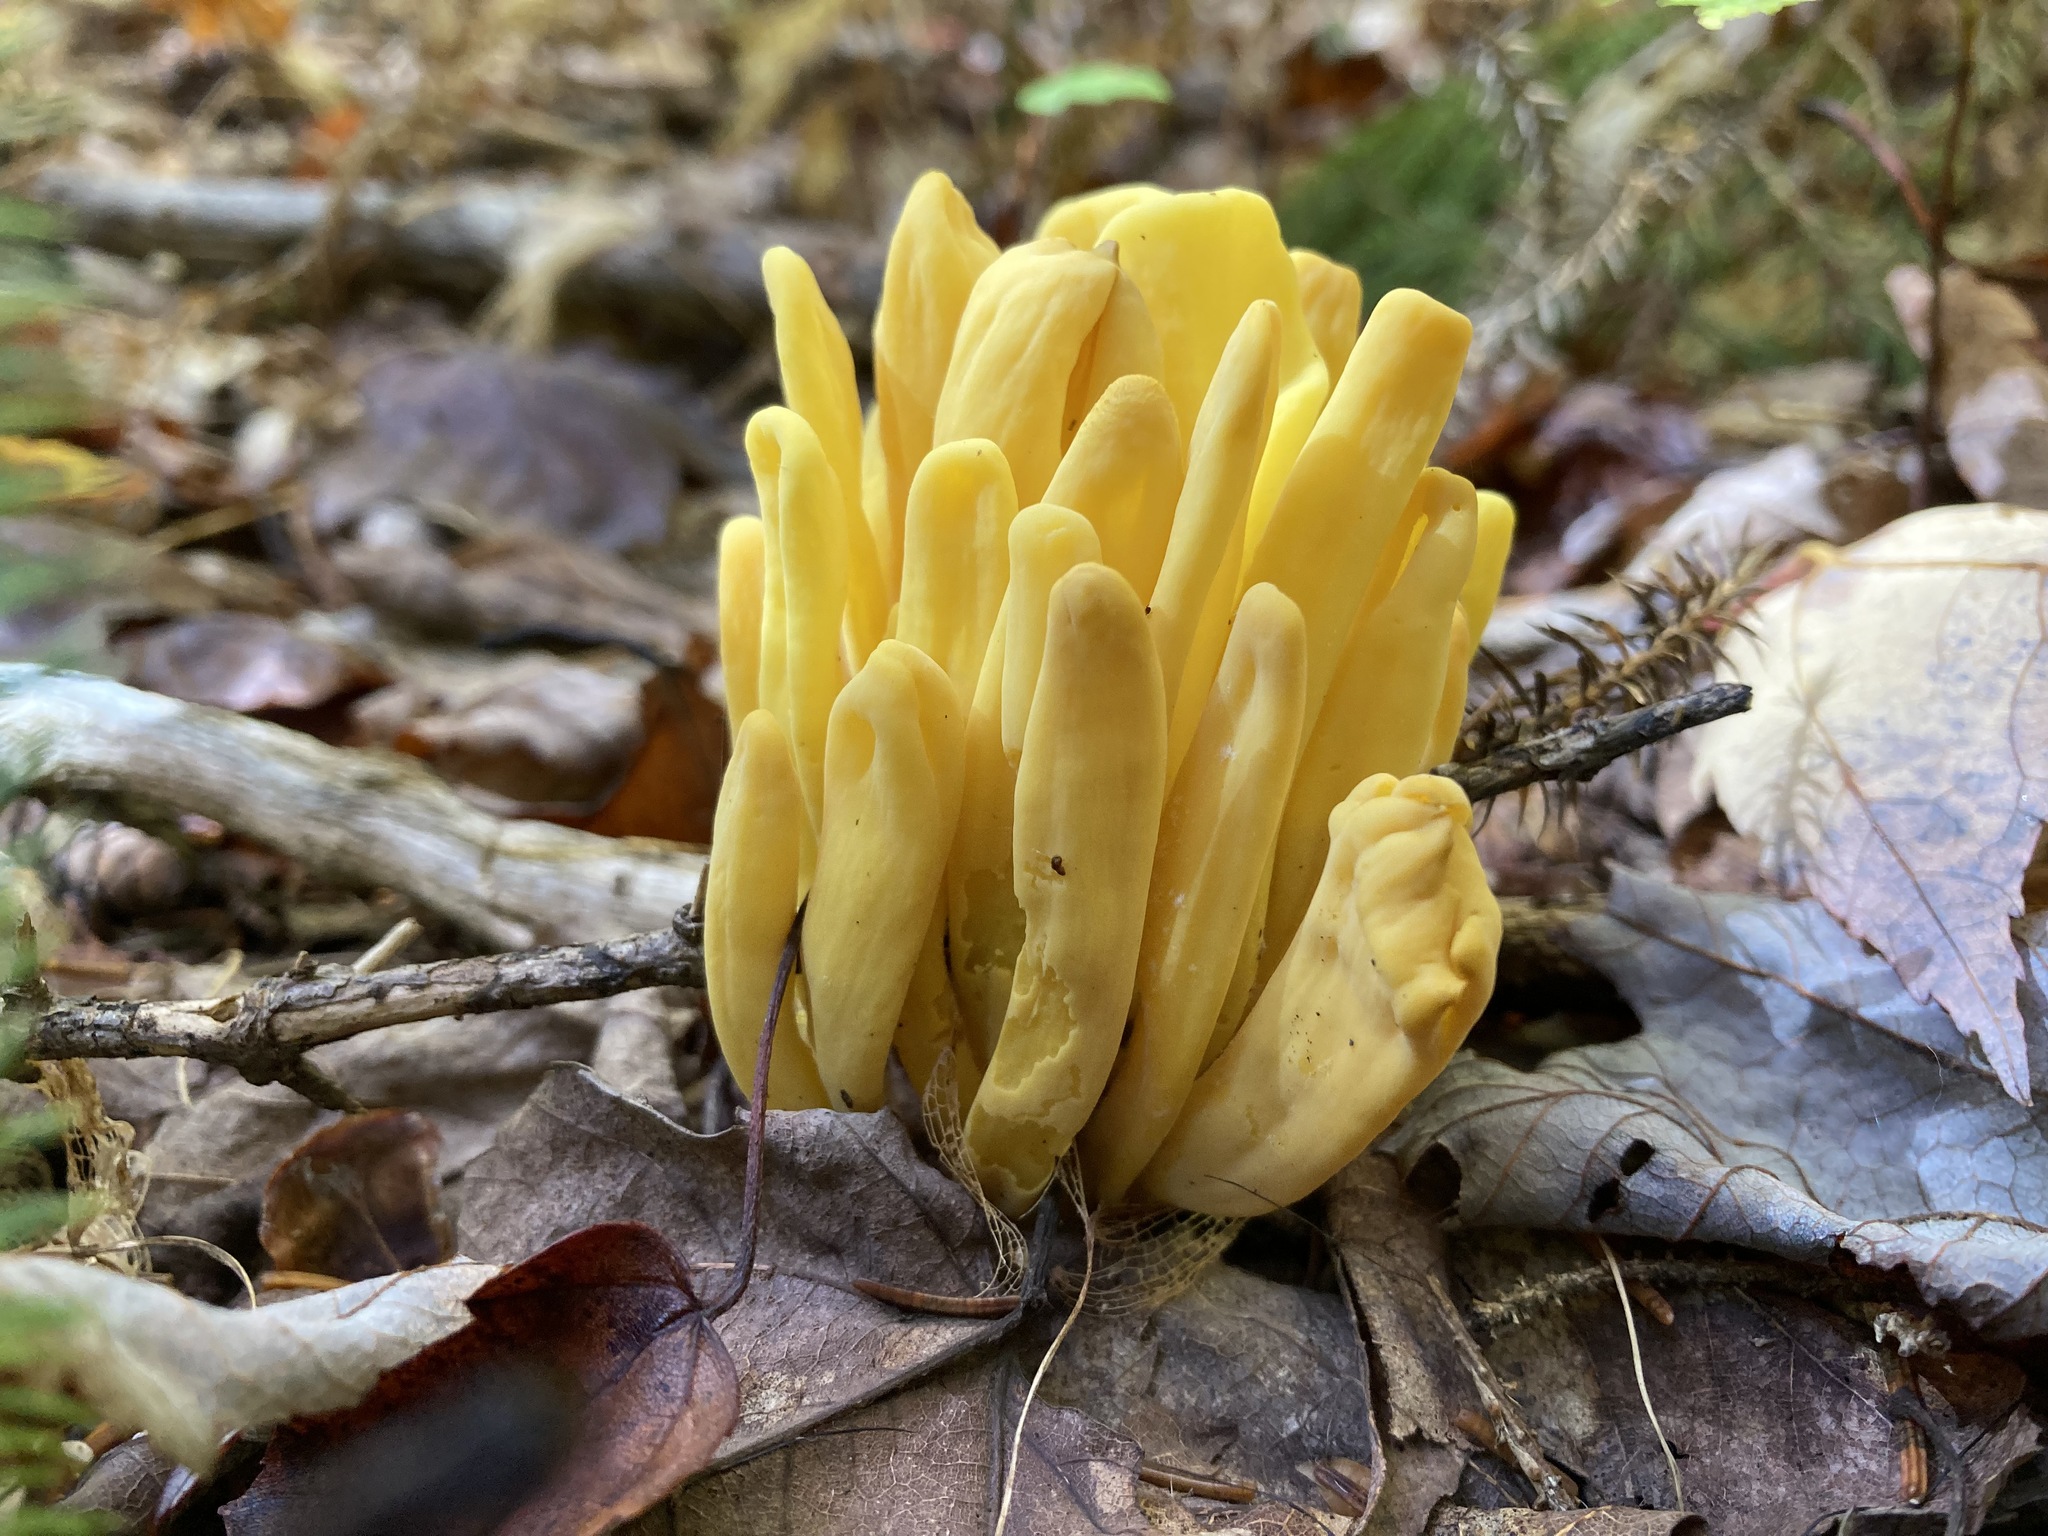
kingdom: Fungi
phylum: Basidiomycota
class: Agaricomycetes
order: Agaricales
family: Clavariaceae
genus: Clavulinopsis
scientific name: Clavulinopsis fusiformis
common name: Golden spindles
